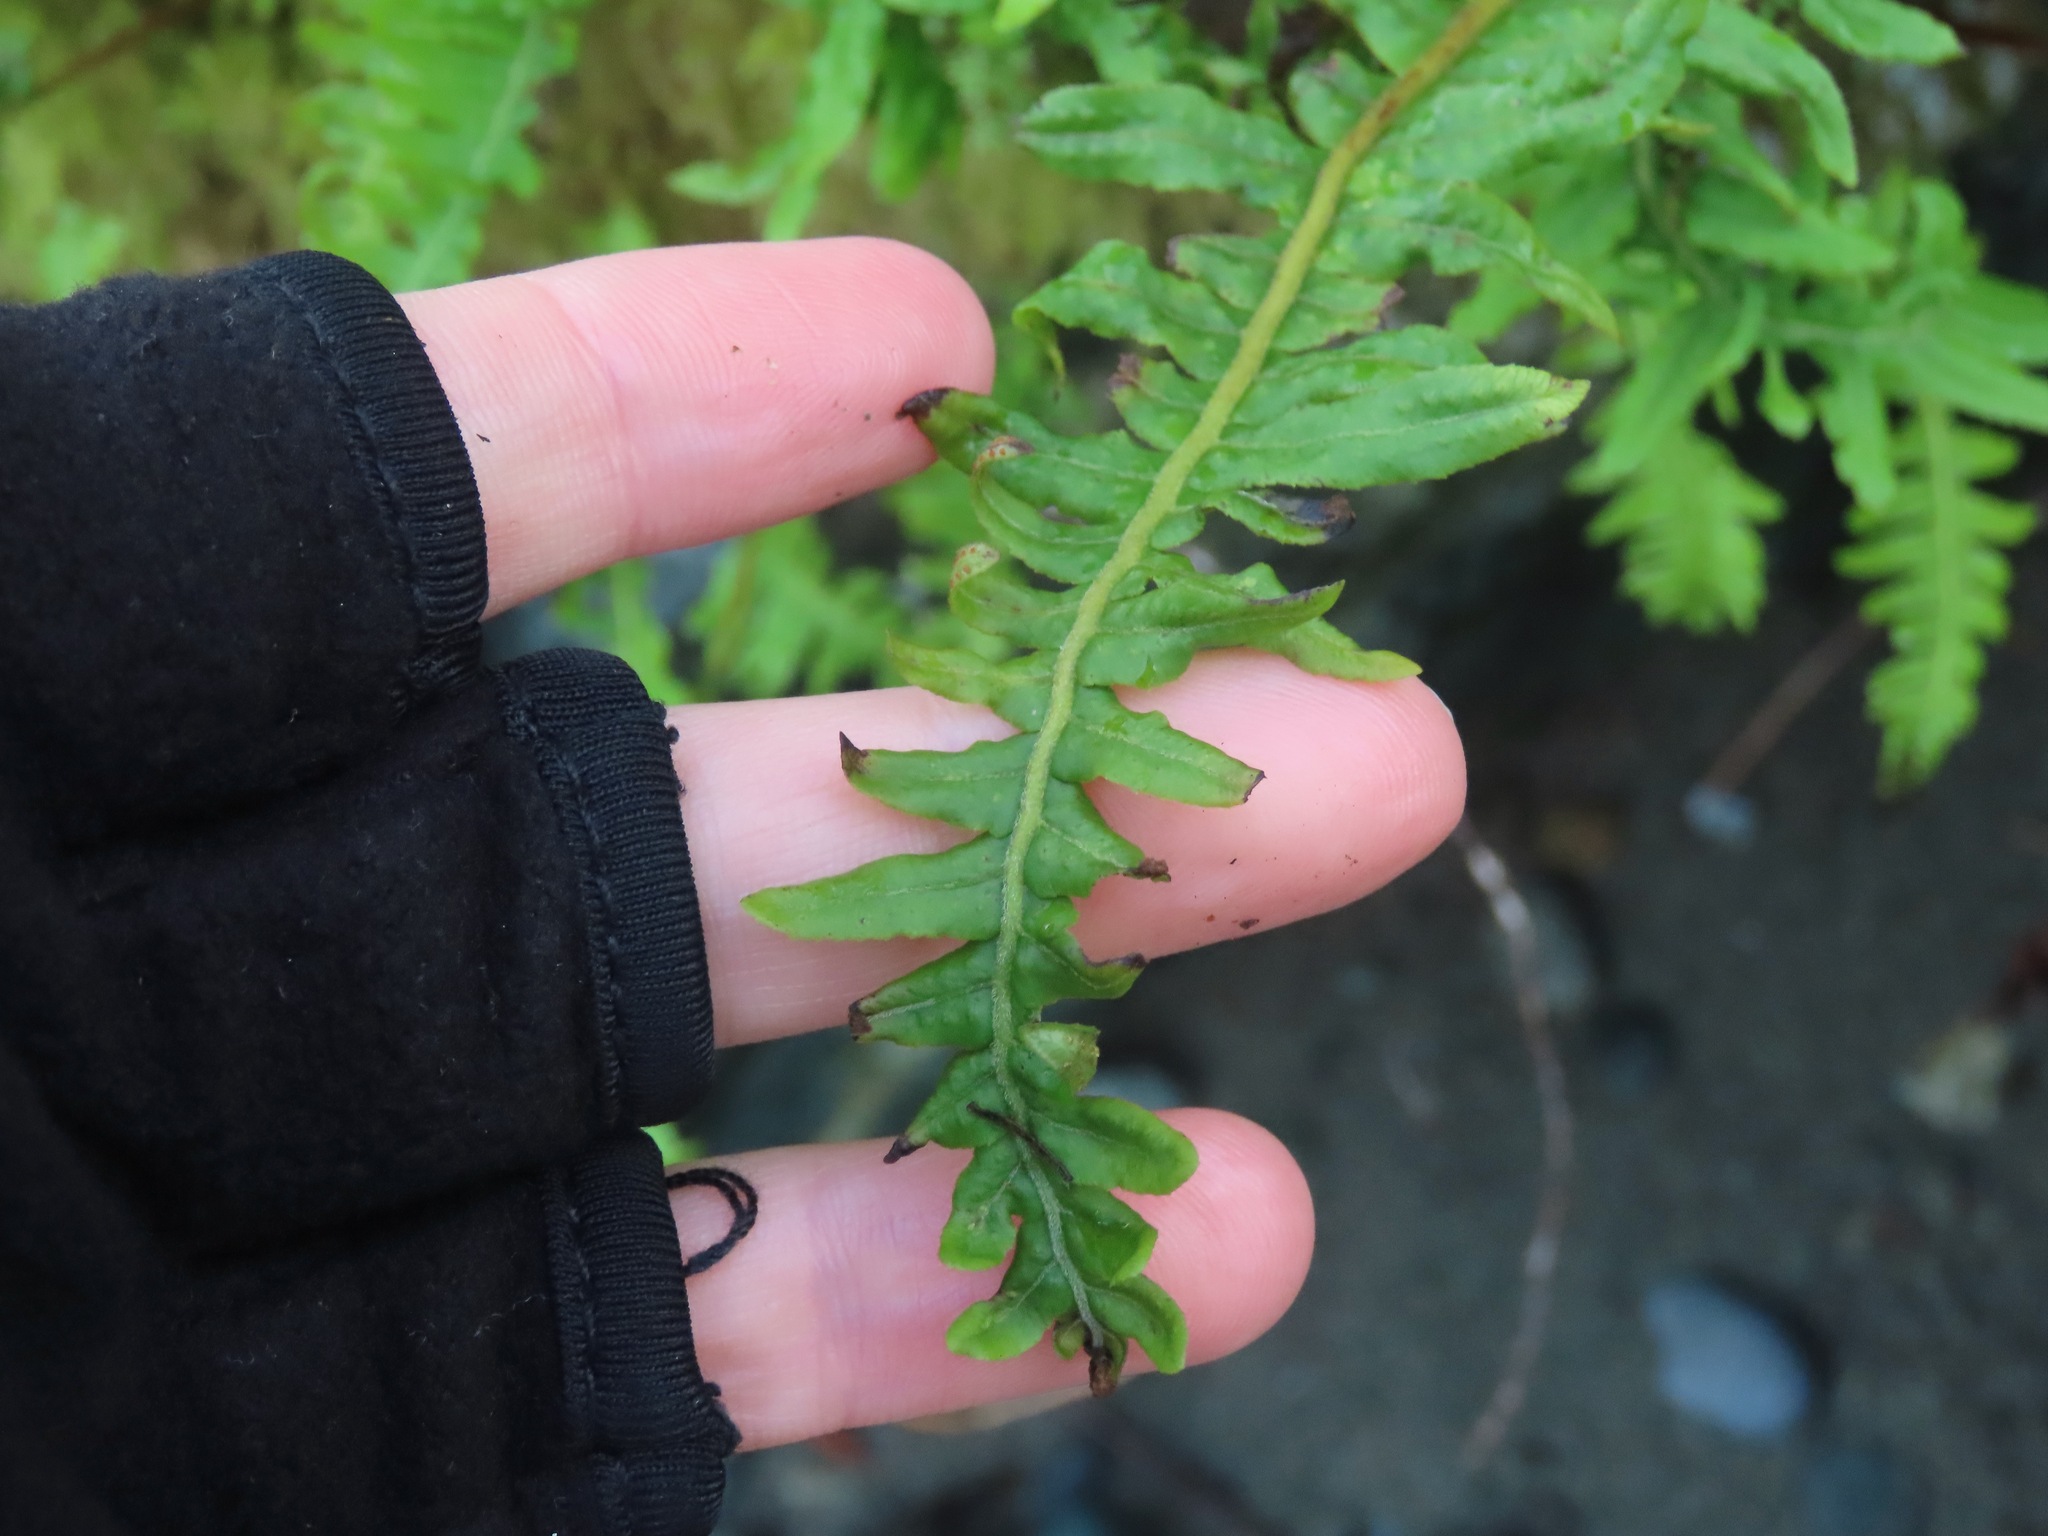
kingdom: Plantae
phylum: Tracheophyta
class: Polypodiopsida
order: Polypodiales
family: Polypodiaceae
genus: Polypodium
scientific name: Polypodium glycyrrhiza
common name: Licorice fern
